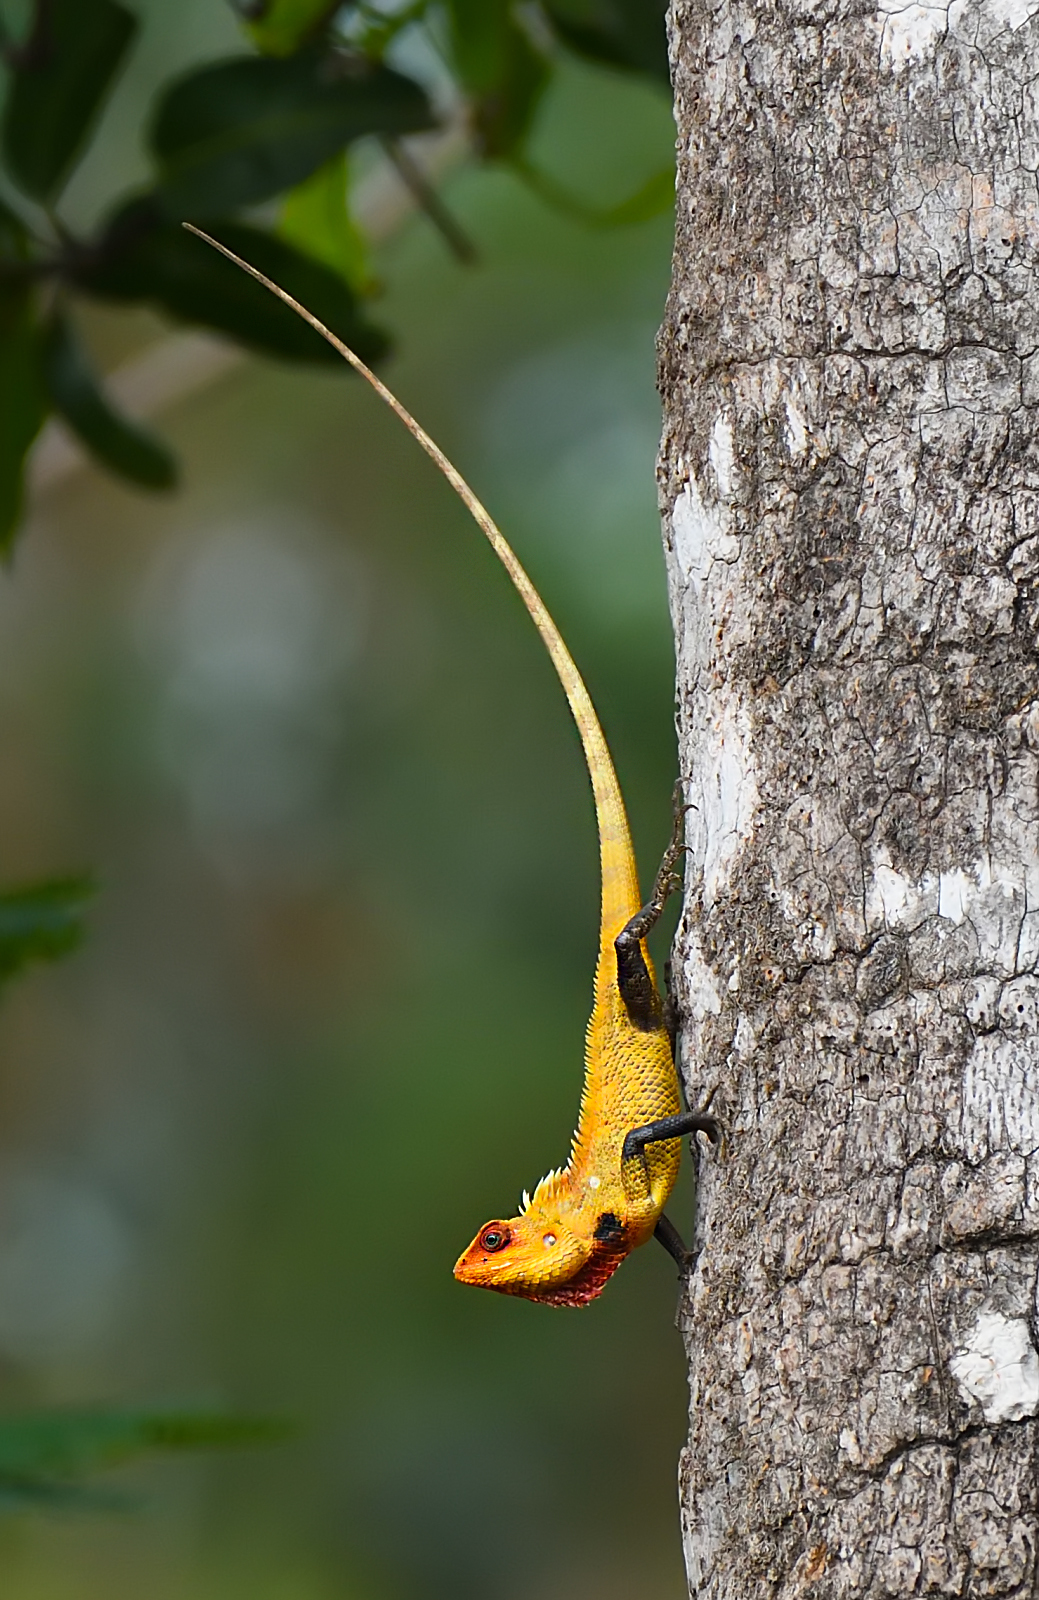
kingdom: Animalia
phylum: Chordata
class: Squamata
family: Agamidae
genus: Calotes
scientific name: Calotes versicolor
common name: Oriental garden lizard
